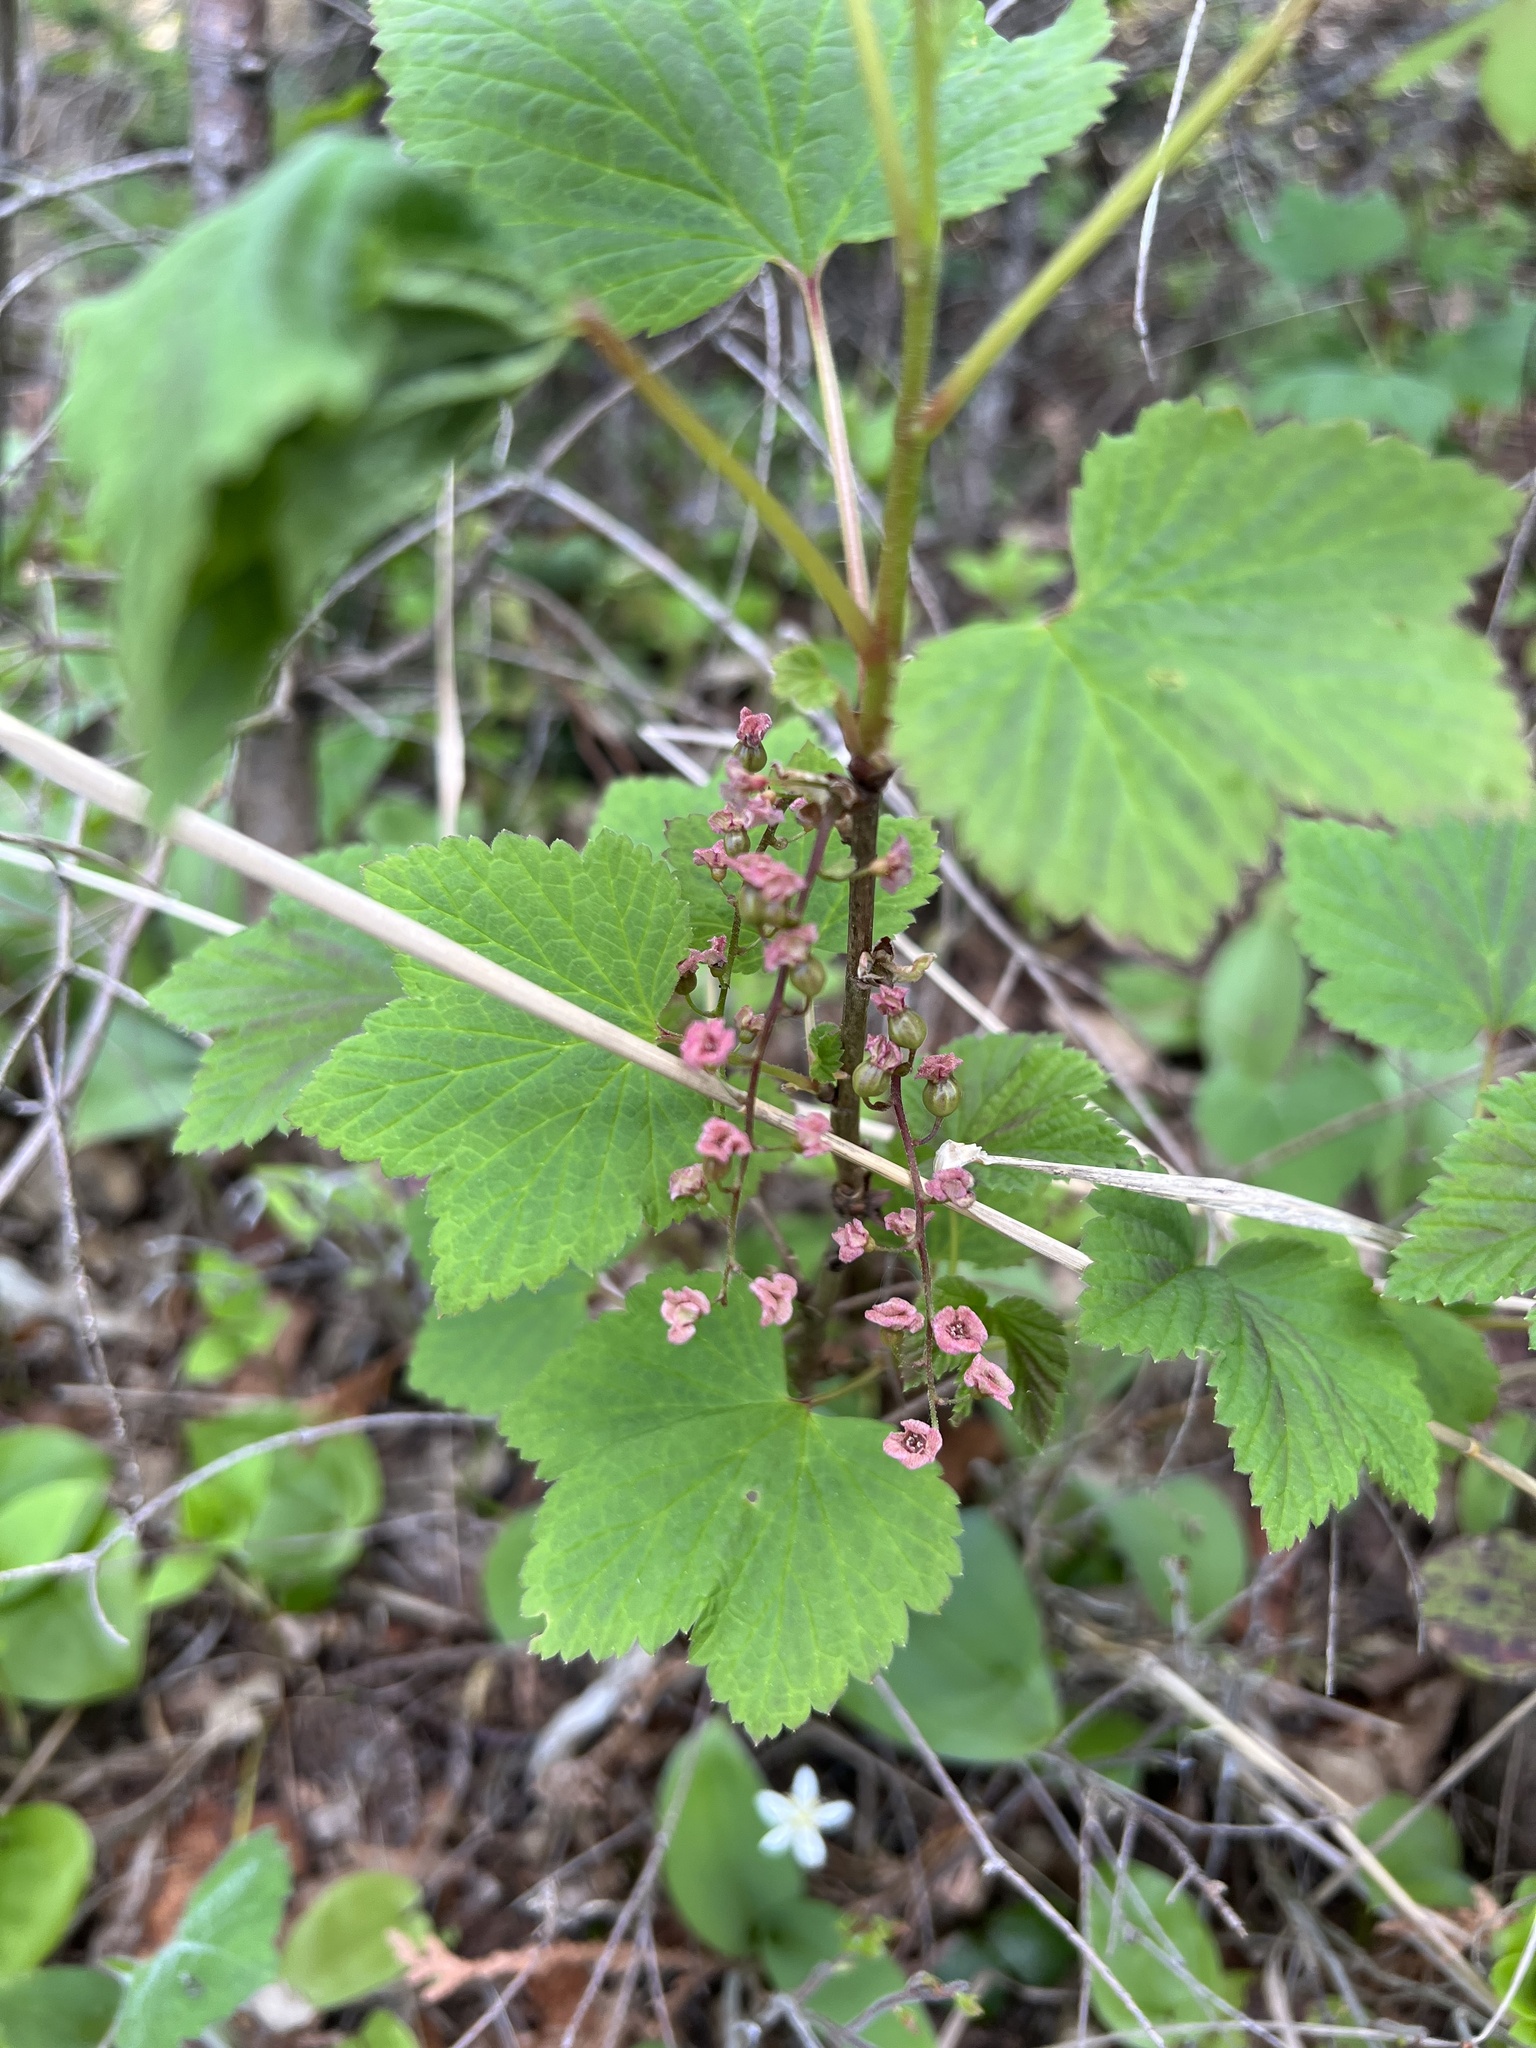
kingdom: Plantae
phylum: Tracheophyta
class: Magnoliopsida
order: Saxifragales
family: Grossulariaceae
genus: Ribes
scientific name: Ribes triste
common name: Swamp red currant
